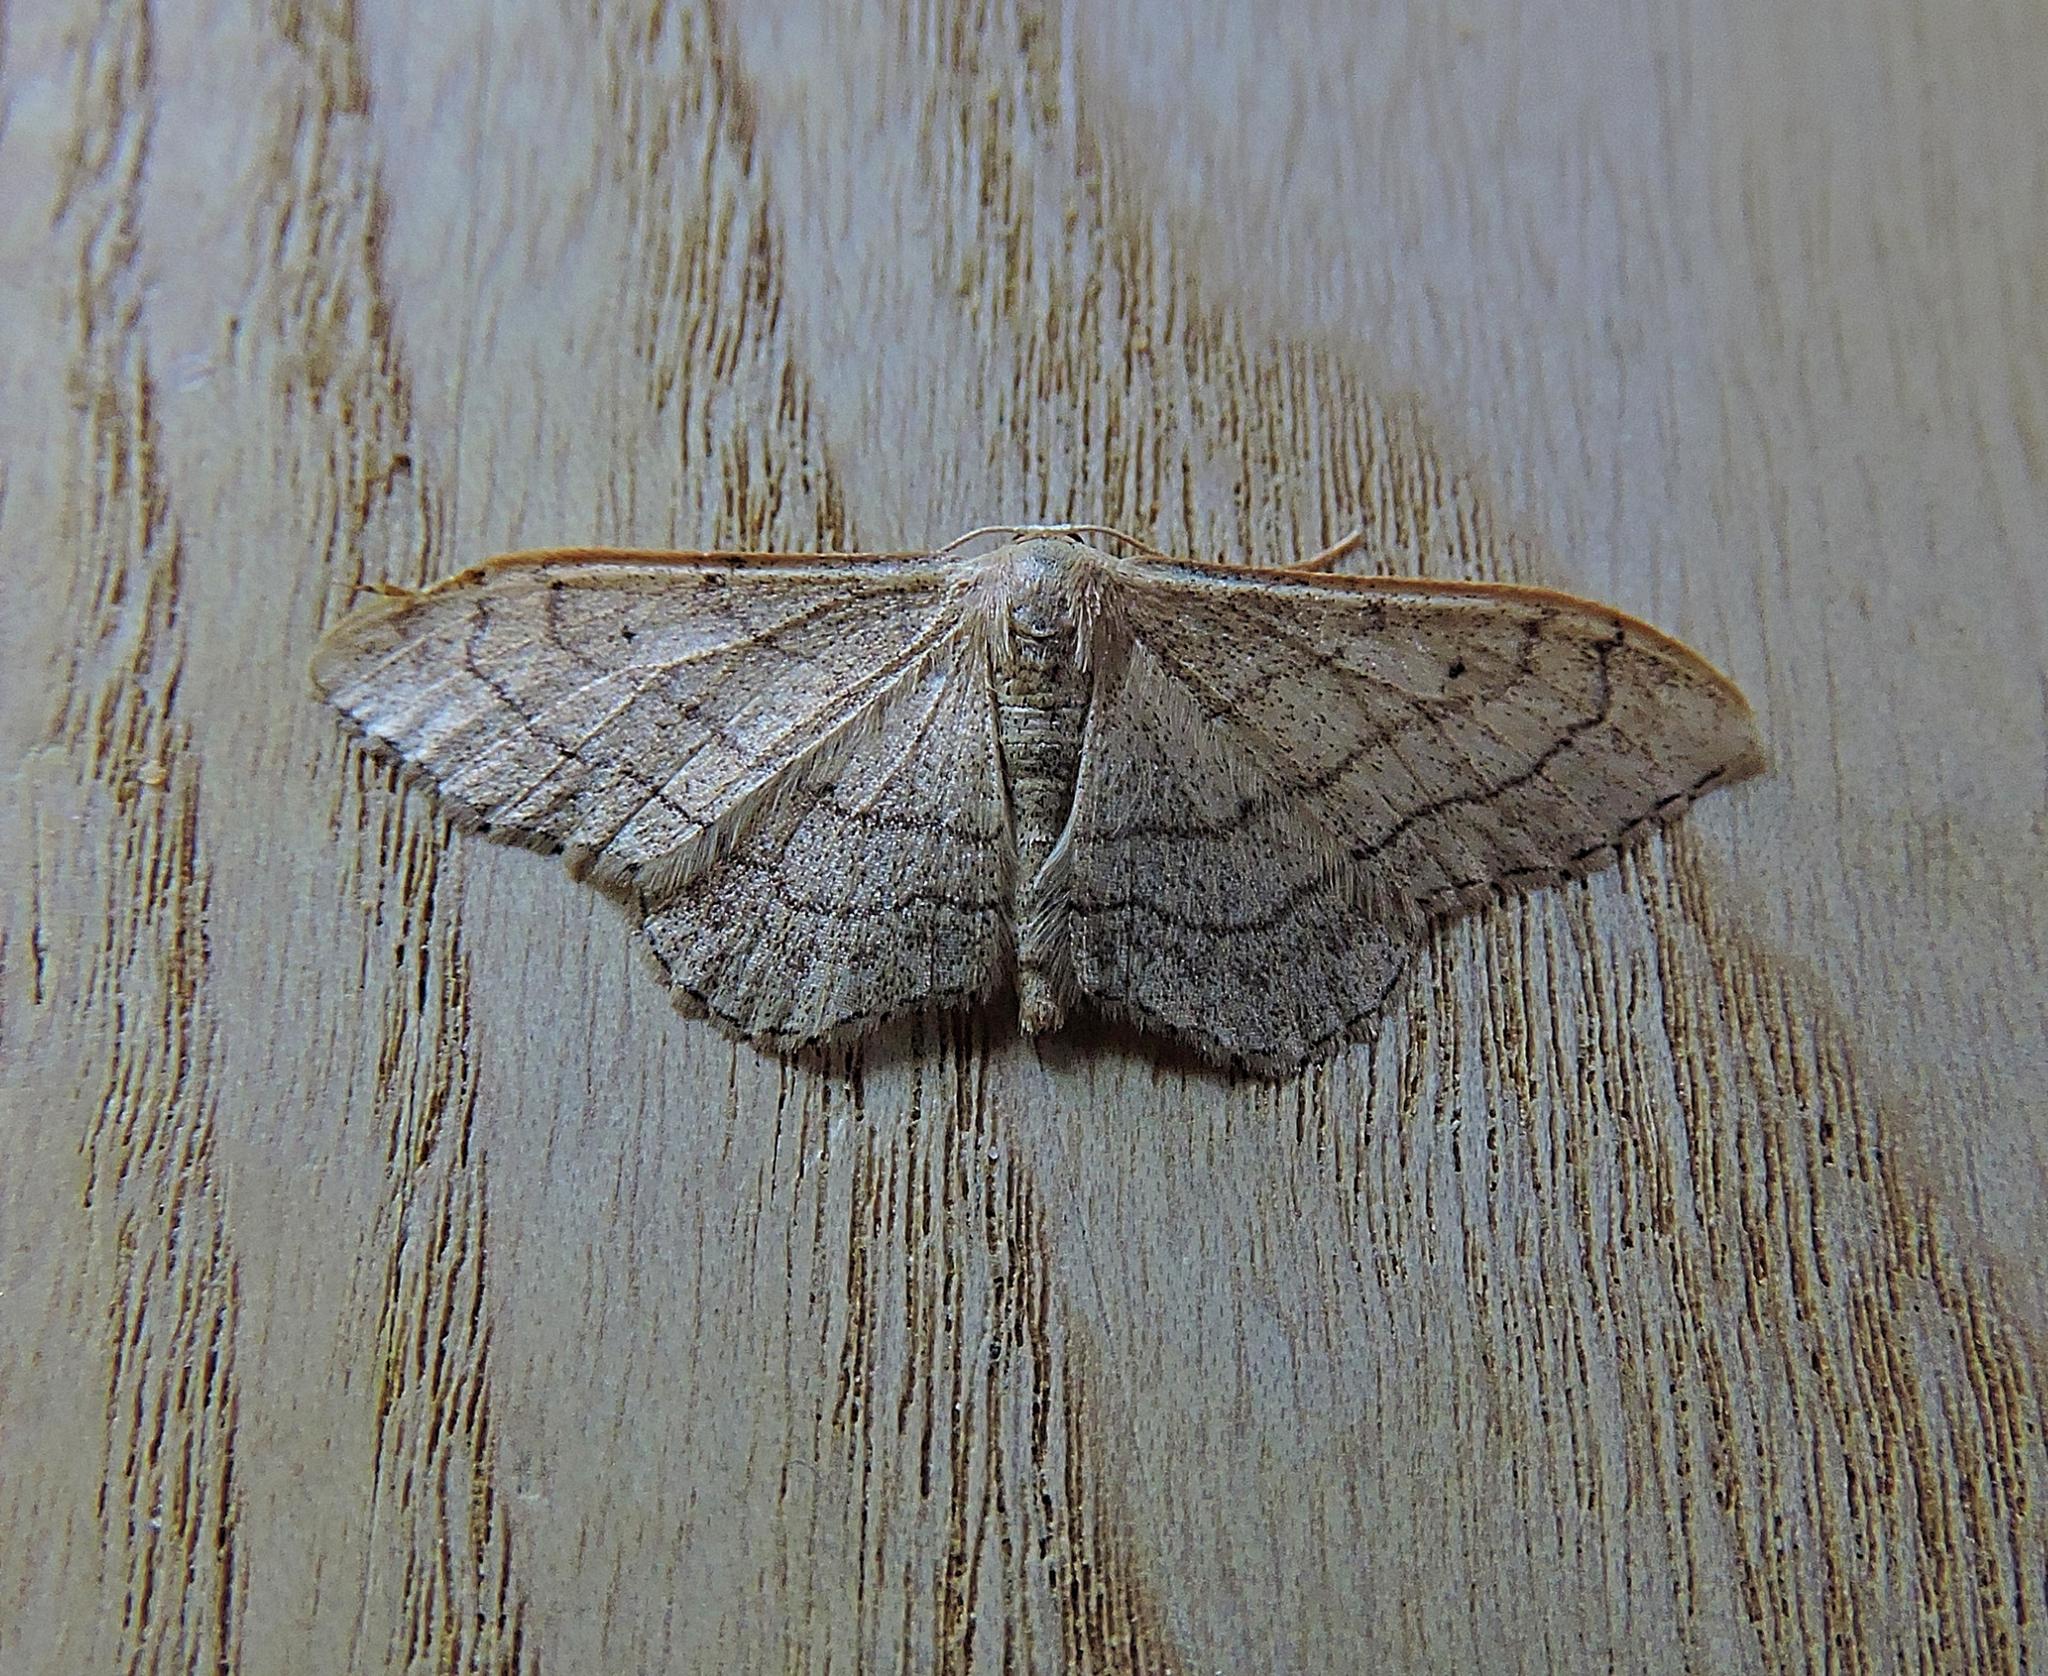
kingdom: Animalia
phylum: Arthropoda
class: Insecta
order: Lepidoptera
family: Geometridae
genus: Idaea
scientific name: Idaea aversata
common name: Riband wave
